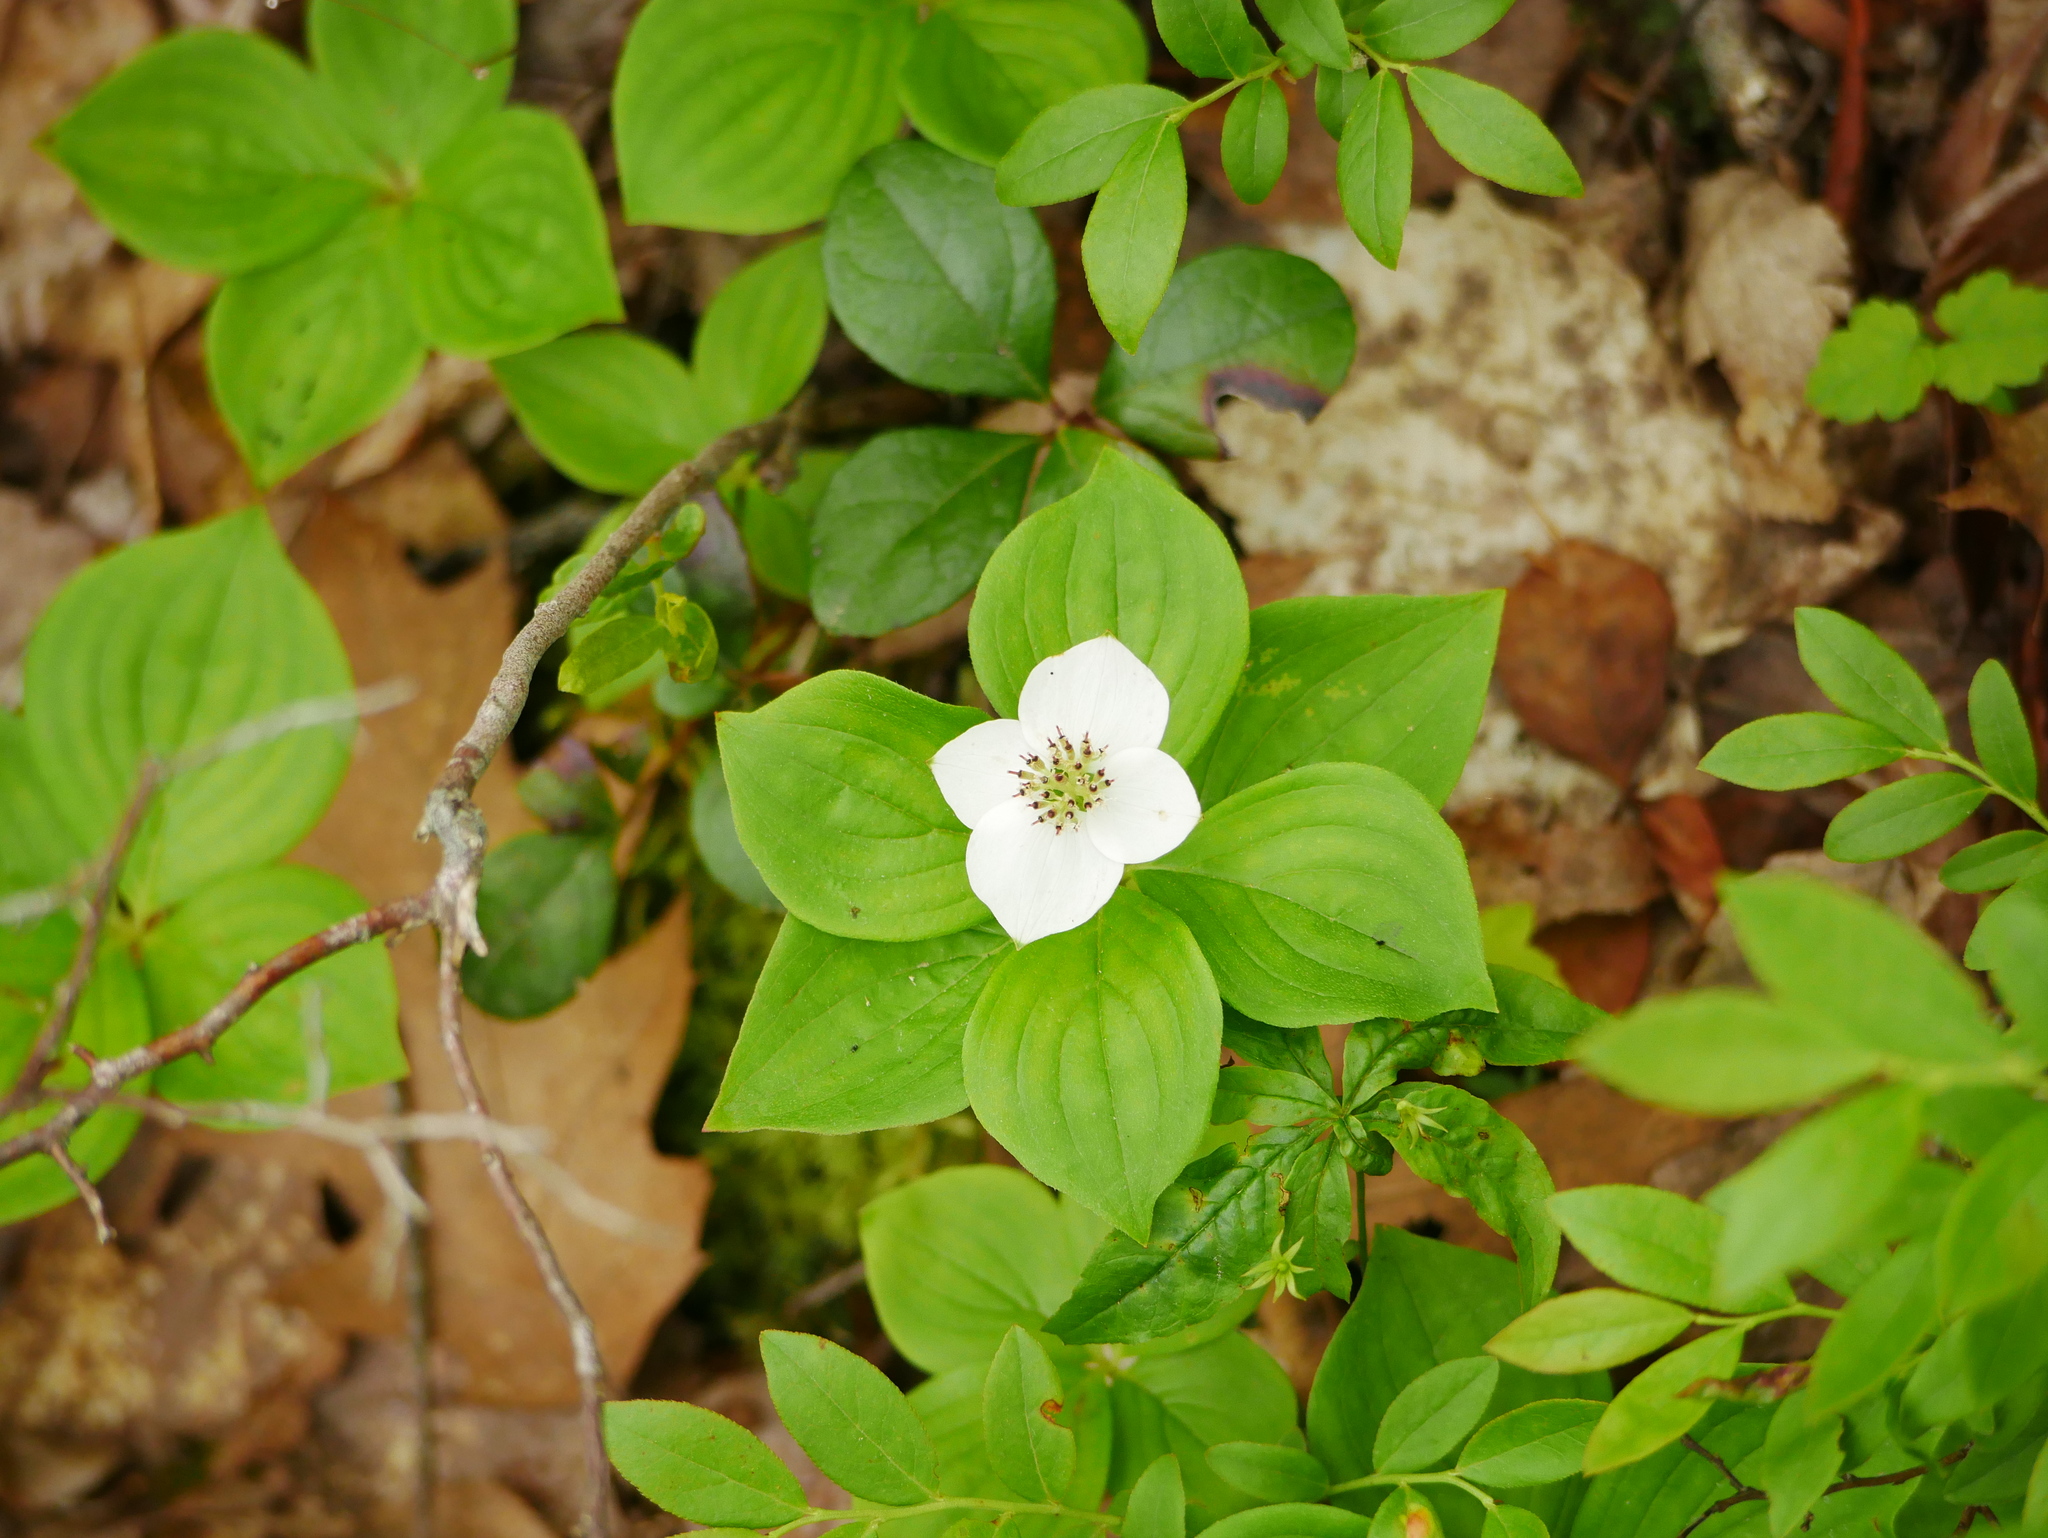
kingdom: Plantae
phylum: Tracheophyta
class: Magnoliopsida
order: Cornales
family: Cornaceae
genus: Cornus
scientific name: Cornus canadensis
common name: Creeping dogwood
